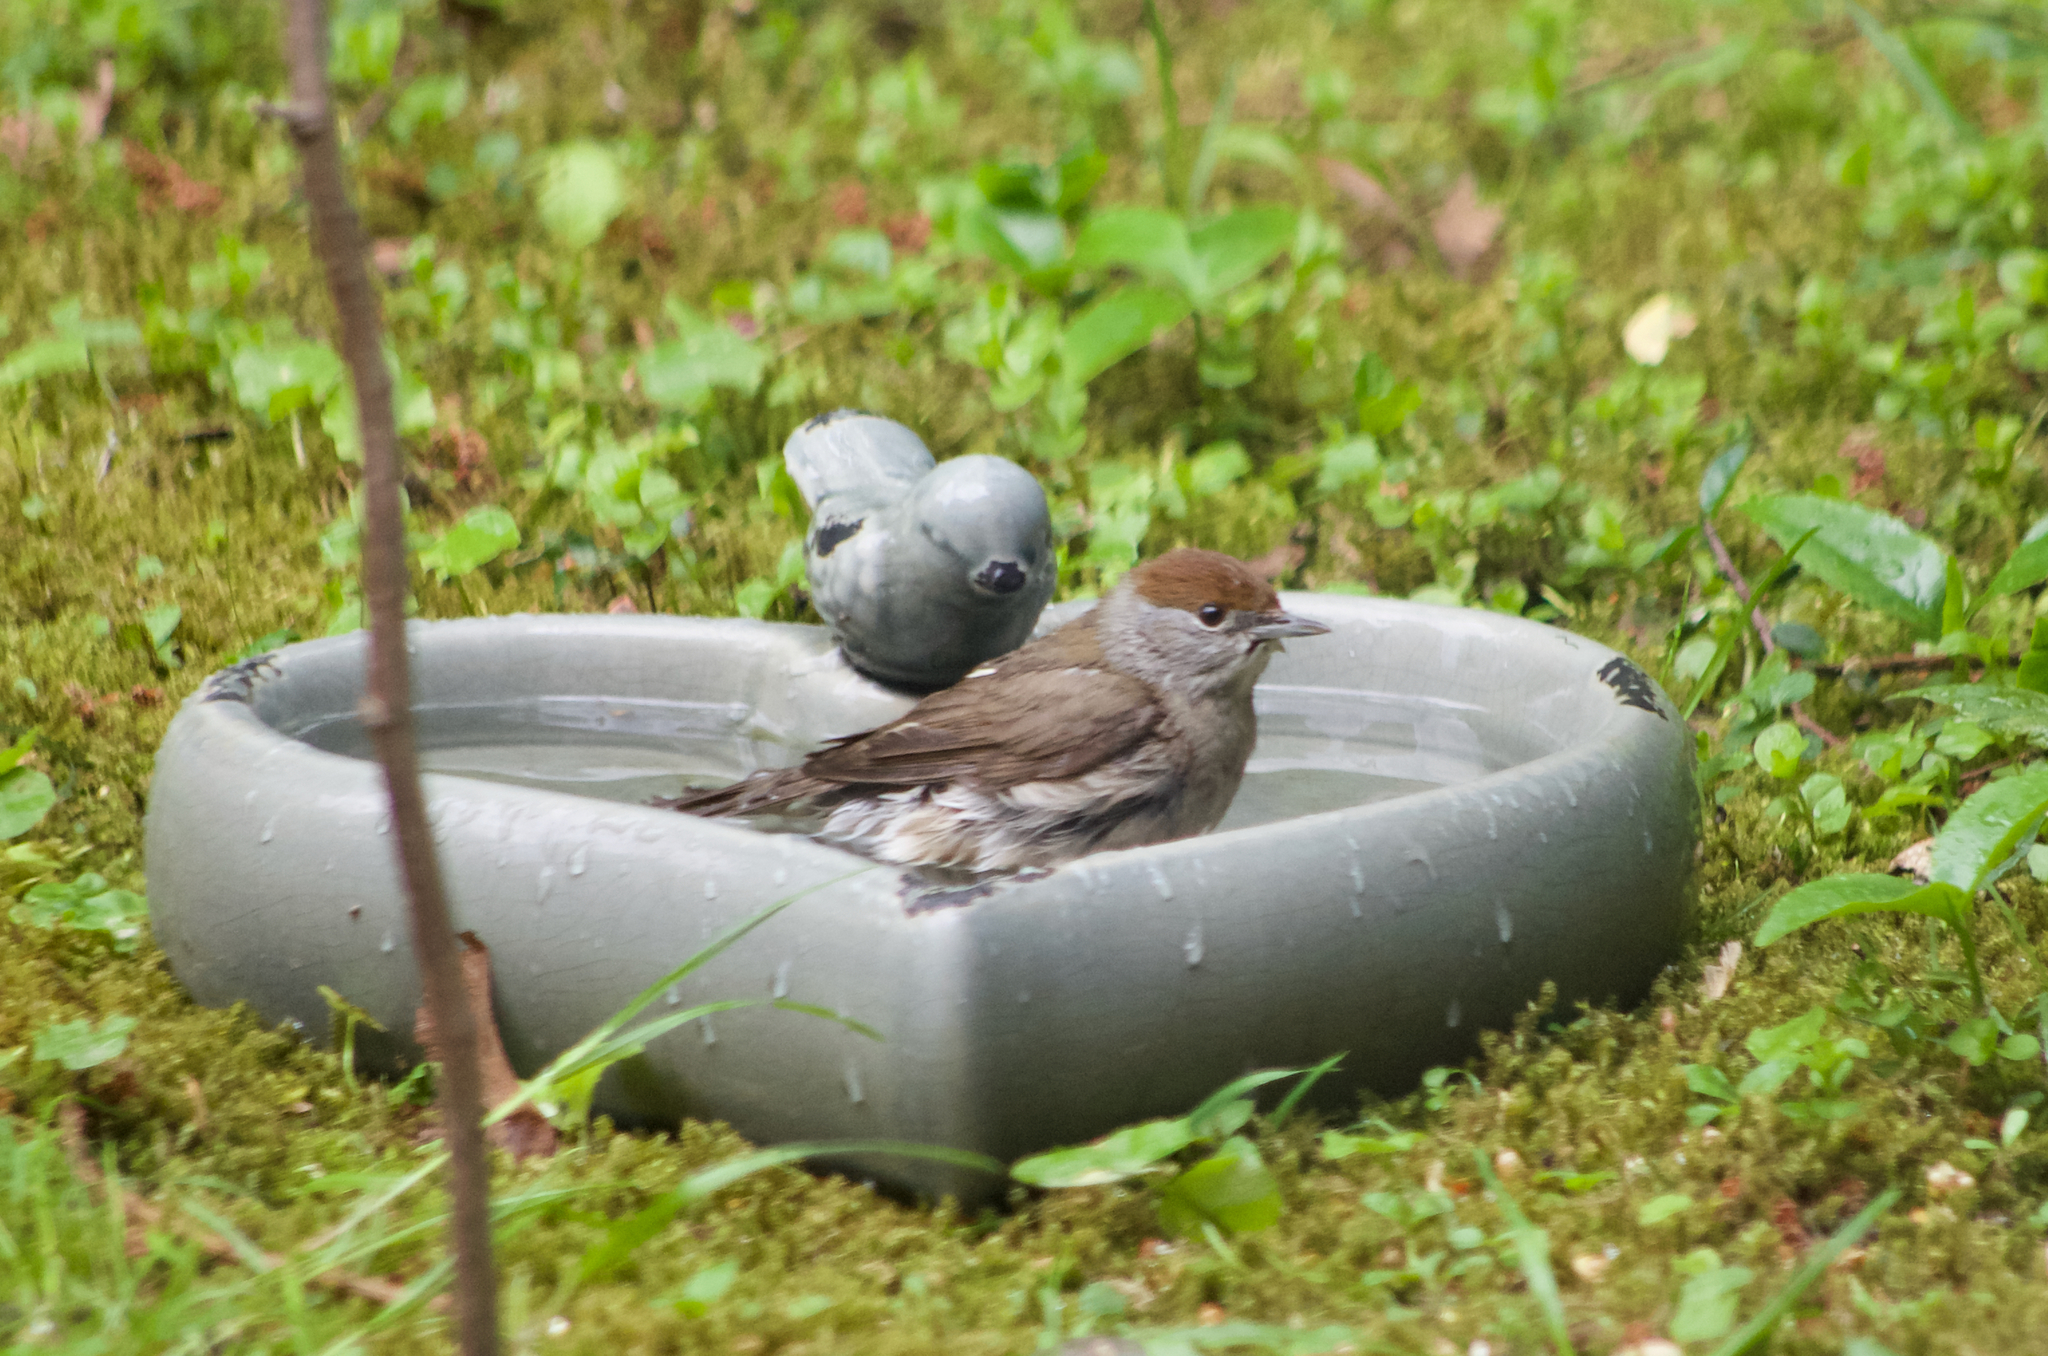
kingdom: Animalia
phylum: Chordata
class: Aves
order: Passeriformes
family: Sylviidae
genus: Sylvia
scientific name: Sylvia atricapilla
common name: Eurasian blackcap
